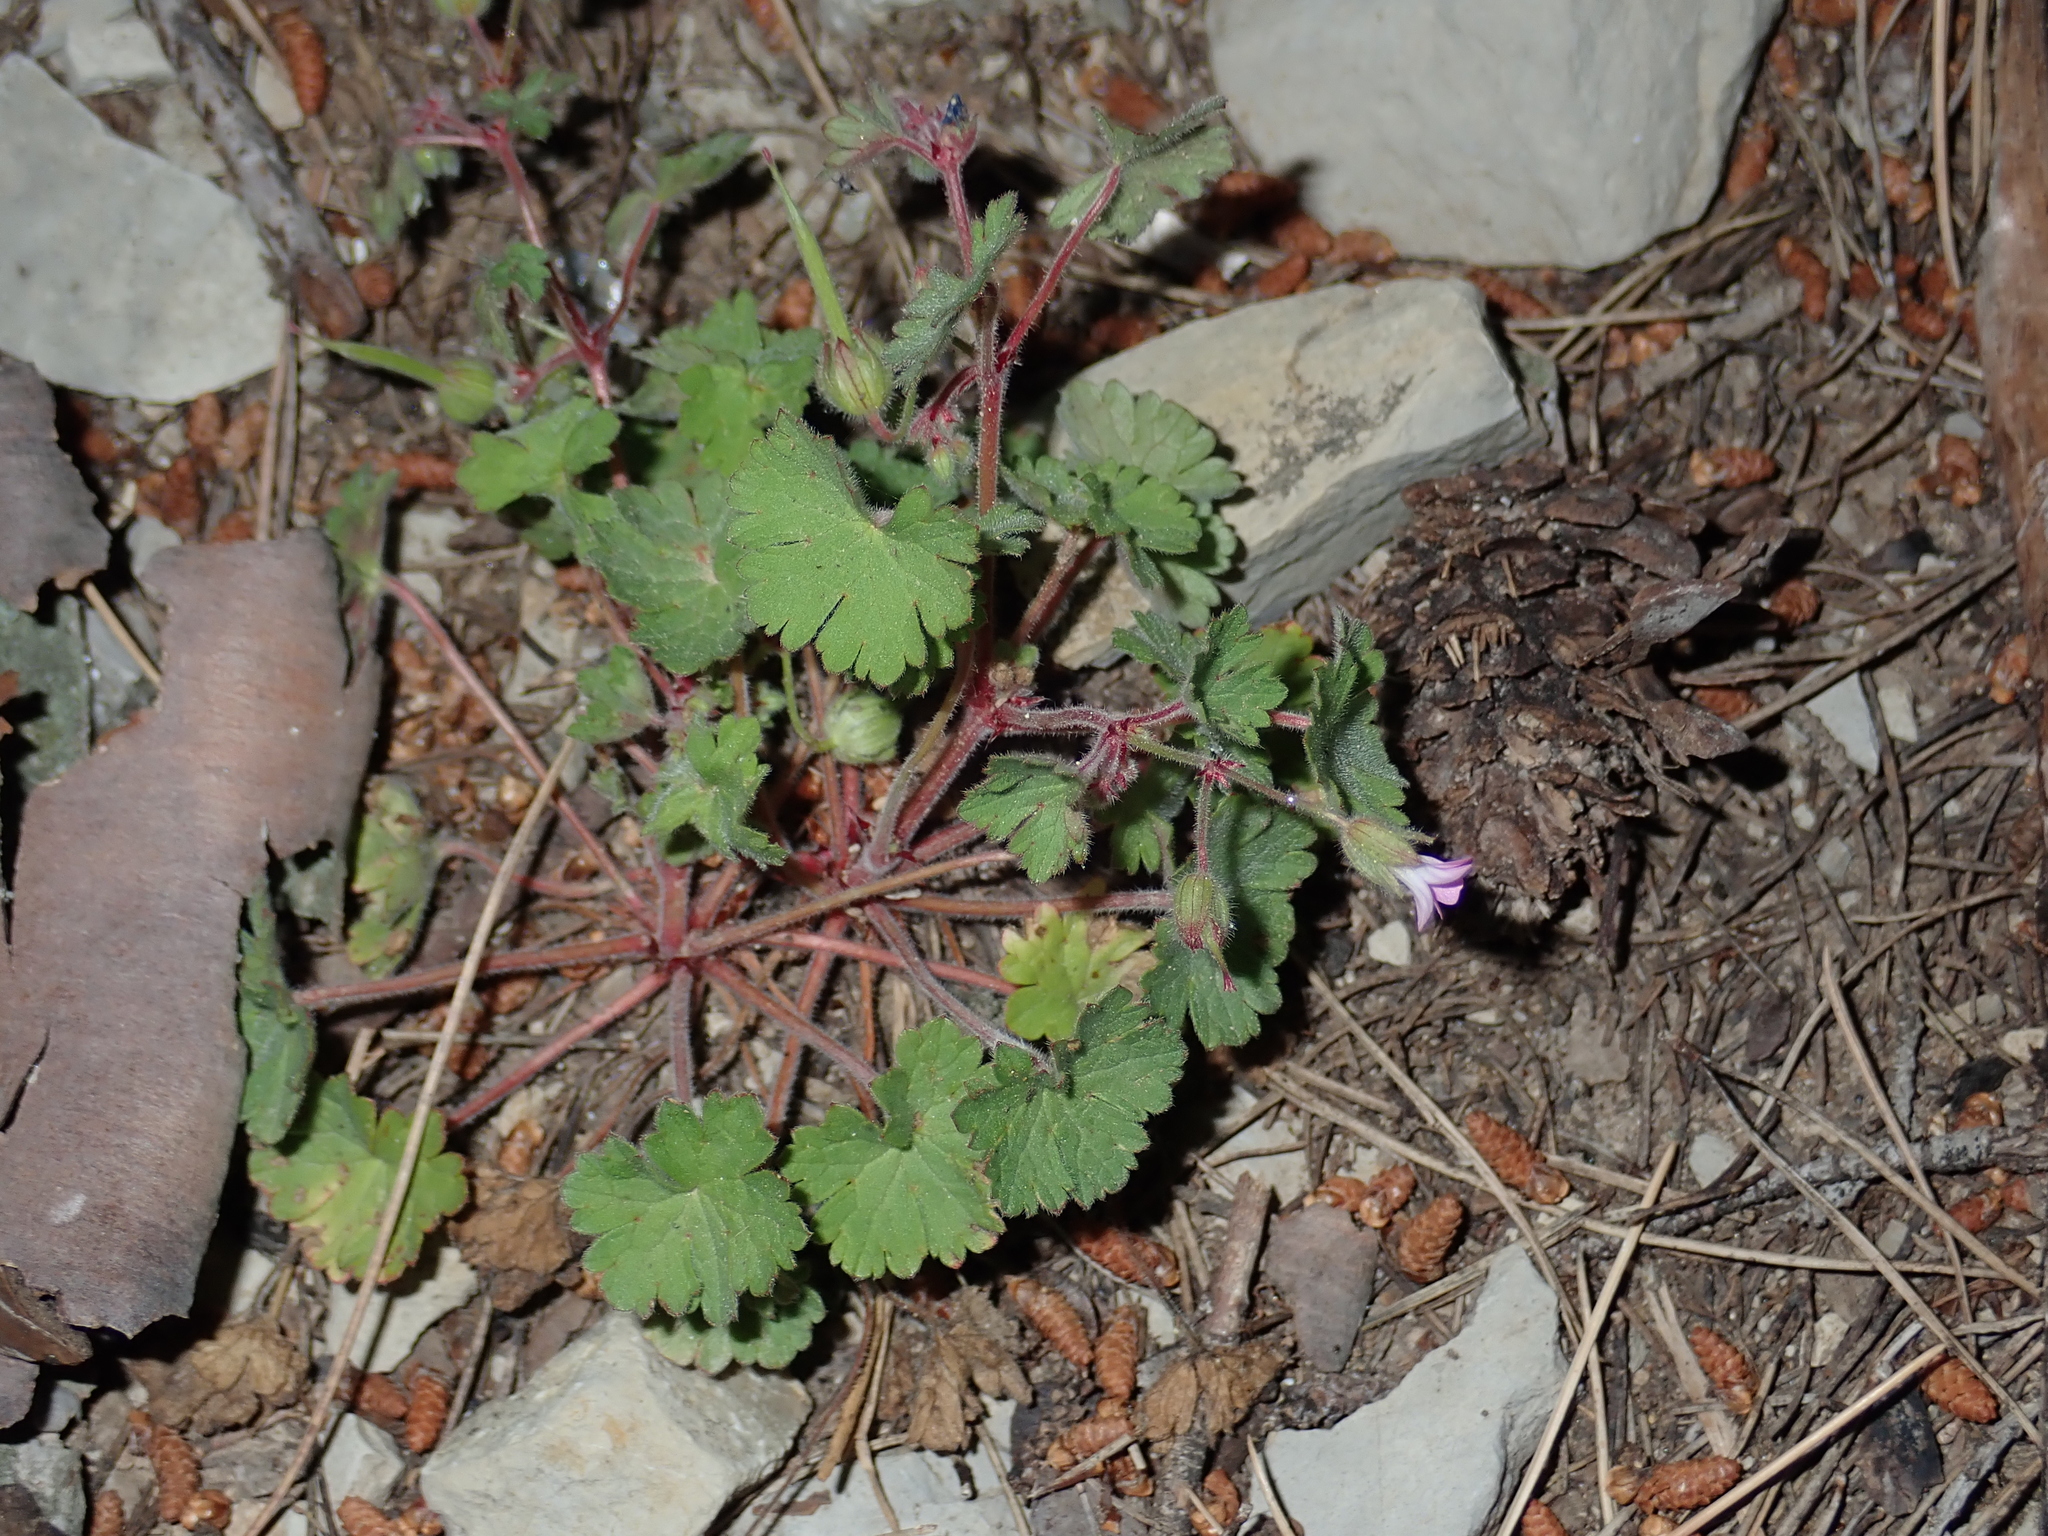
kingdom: Plantae
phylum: Tracheophyta
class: Magnoliopsida
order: Geraniales
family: Geraniaceae
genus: Geranium
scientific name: Geranium rotundifolium
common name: Round-leaved crane's-bill
